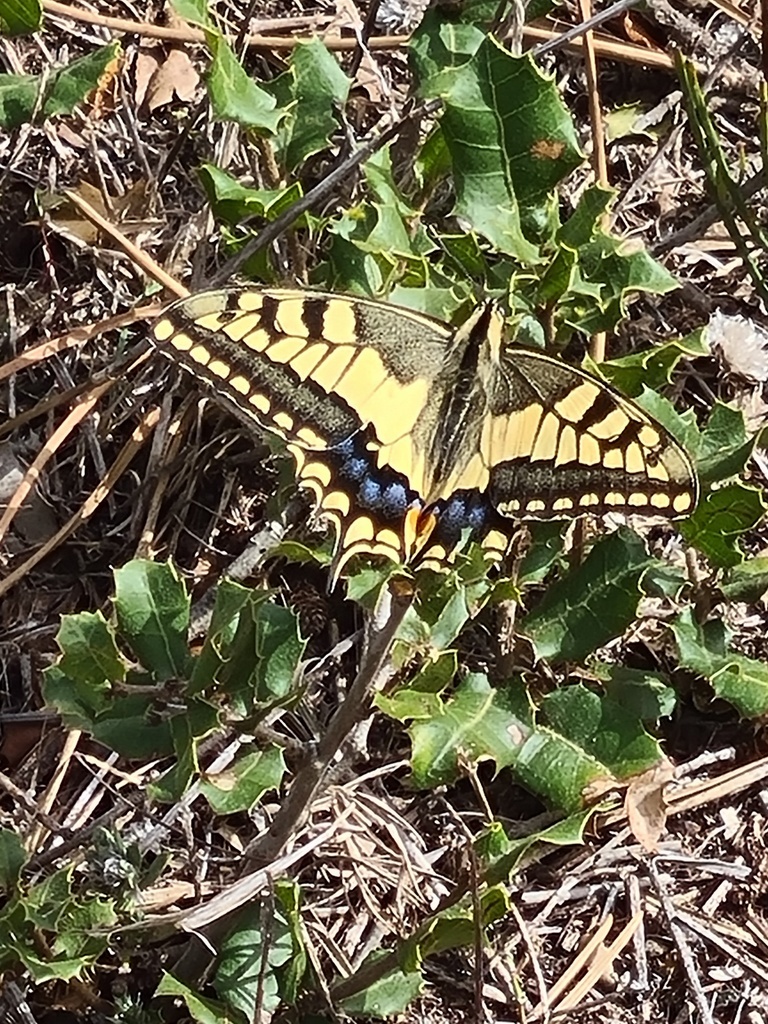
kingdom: Animalia
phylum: Arthropoda
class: Insecta
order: Lepidoptera
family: Papilionidae
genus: Papilio
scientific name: Papilio machaon
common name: Swallowtail
